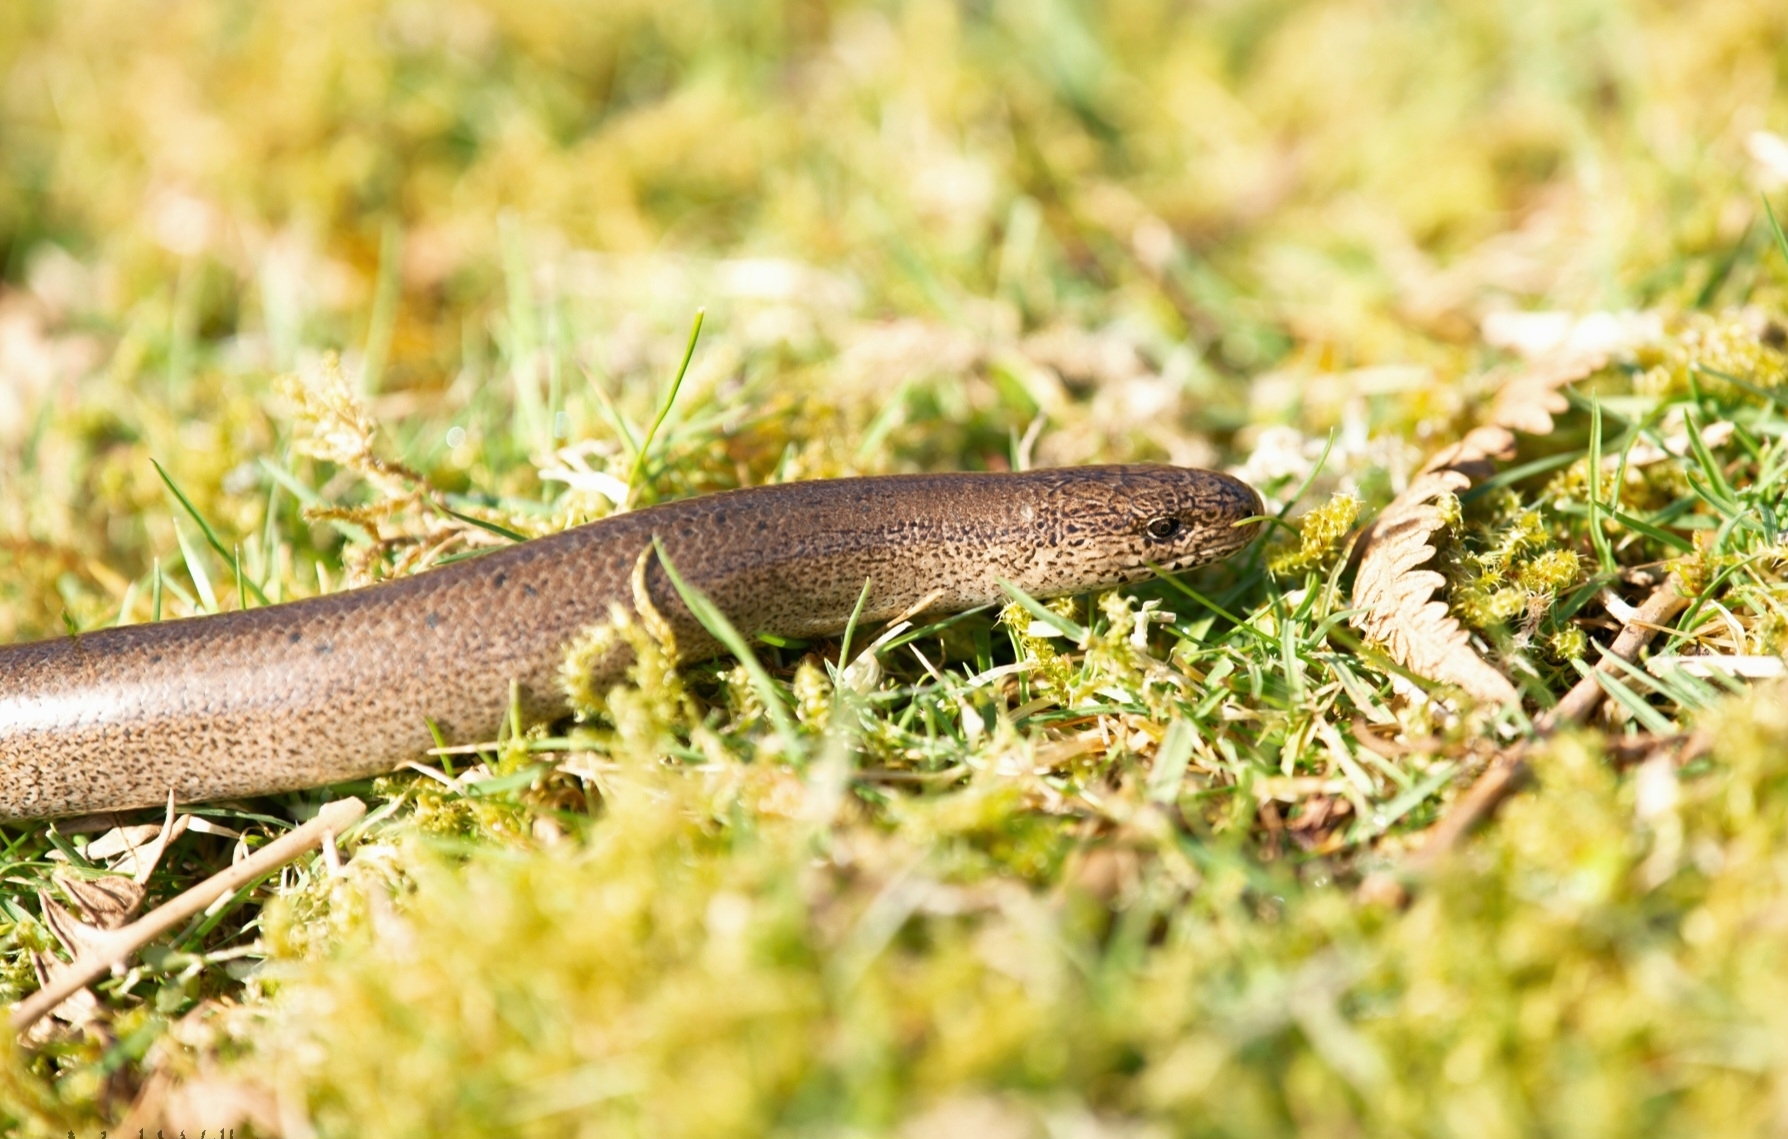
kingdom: Animalia
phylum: Chordata
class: Squamata
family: Anguidae
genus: Anguis
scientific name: Anguis fragilis
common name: Slow worm
